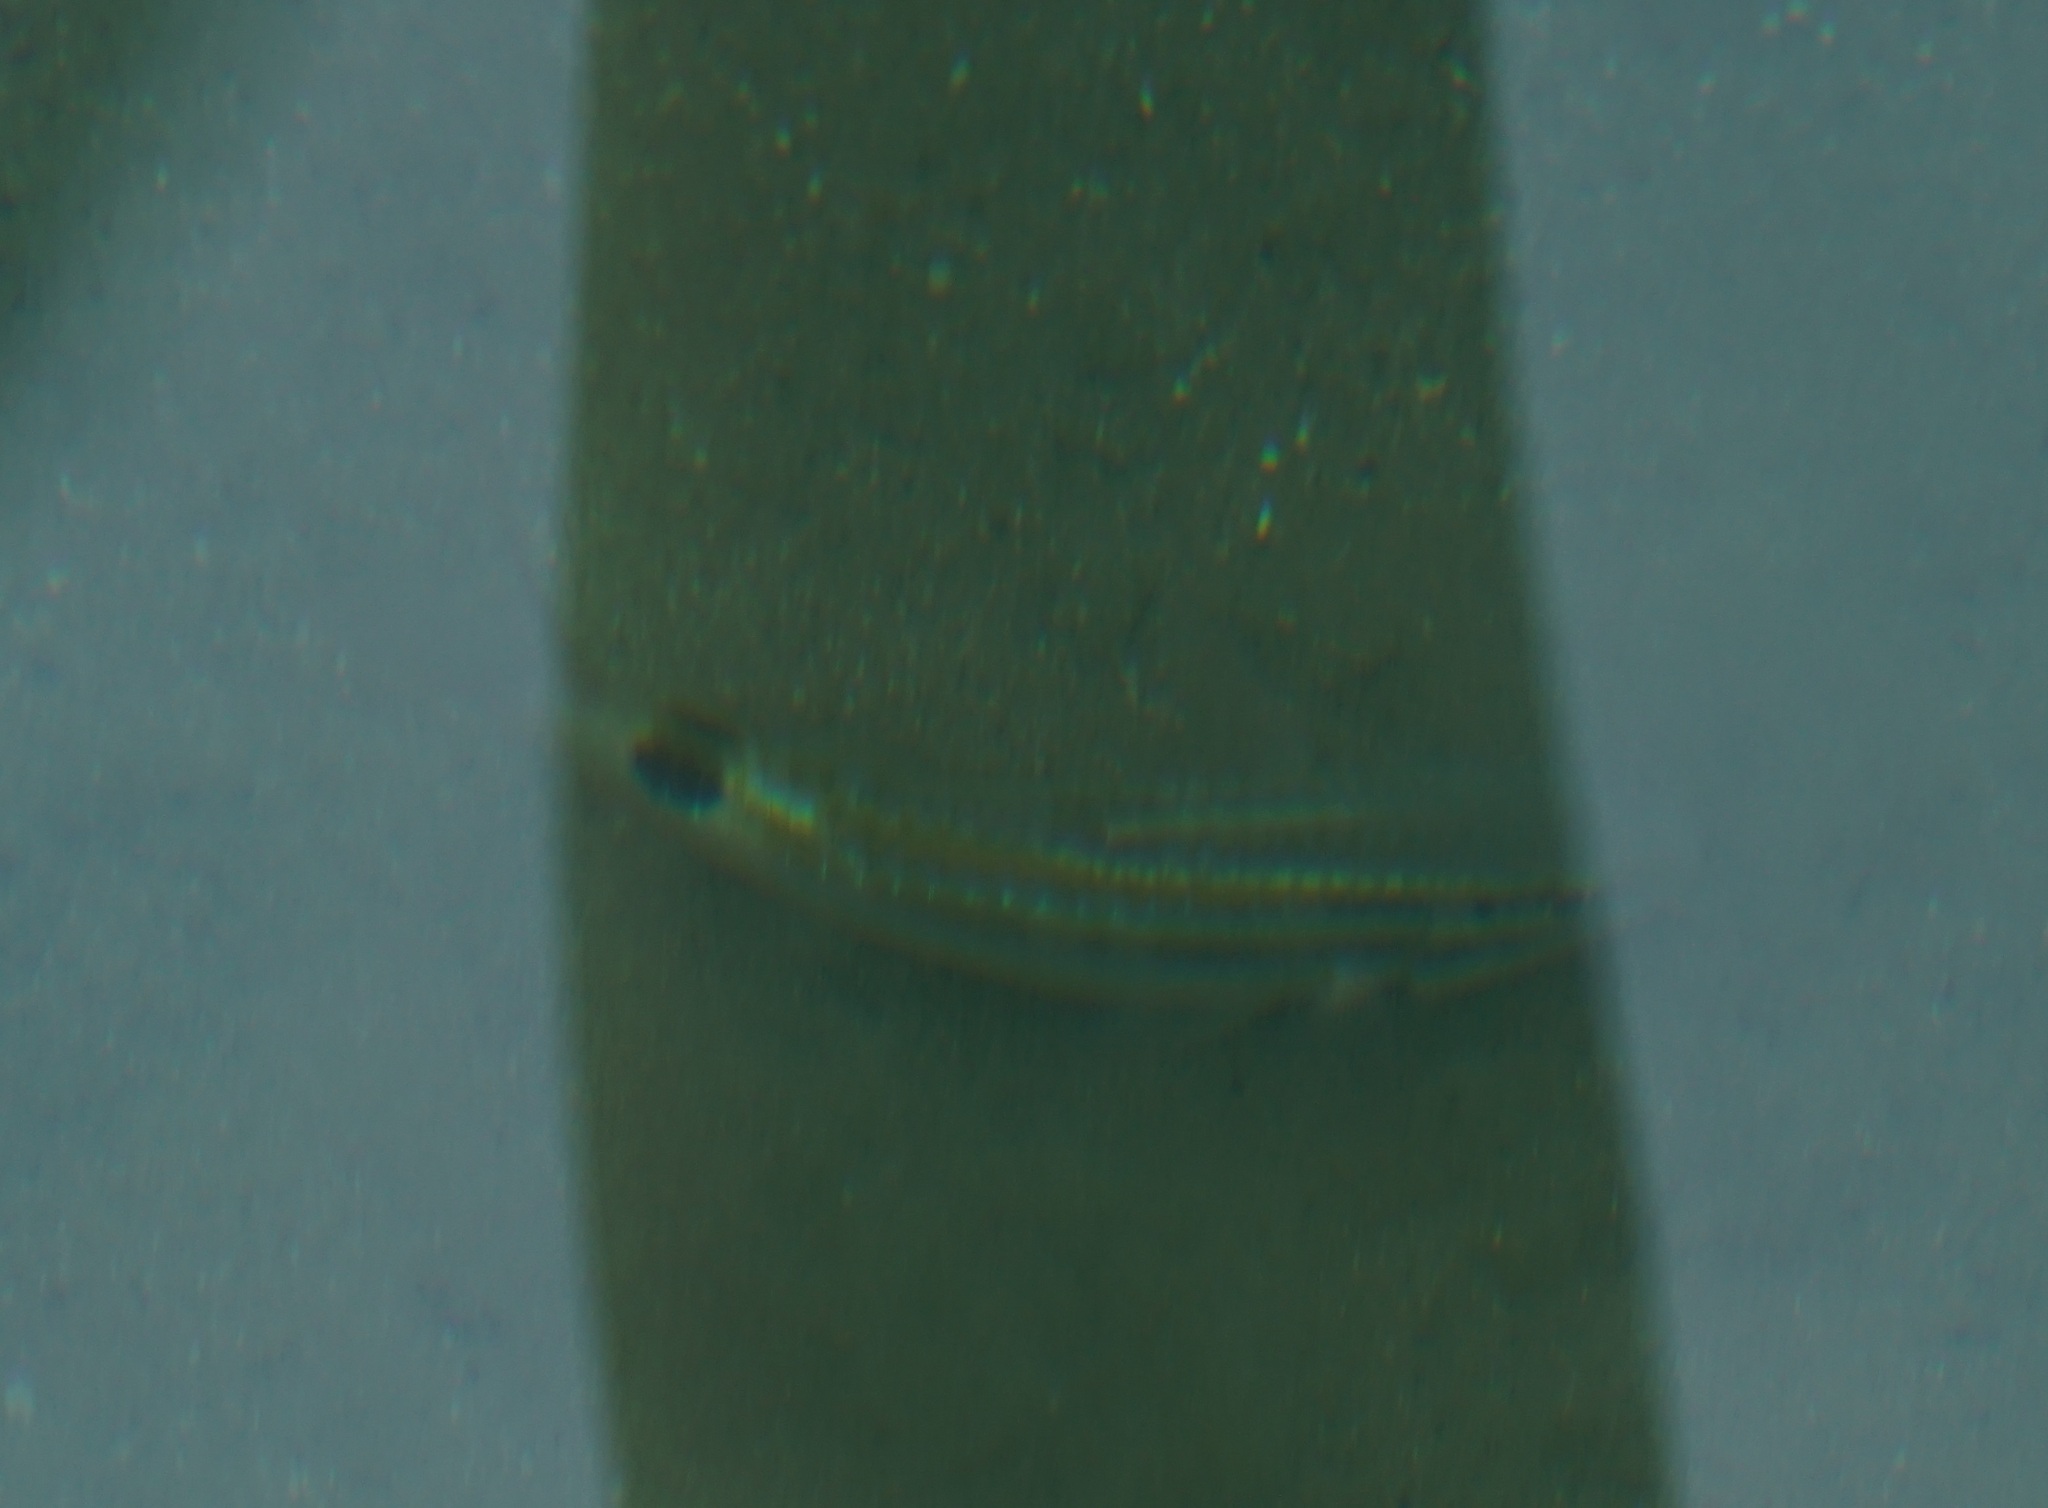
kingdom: Animalia
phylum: Chordata
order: Perciformes
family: Mullidae
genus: Parupeneus
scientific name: Parupeneus spilurus
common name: Blackspot goatfish
